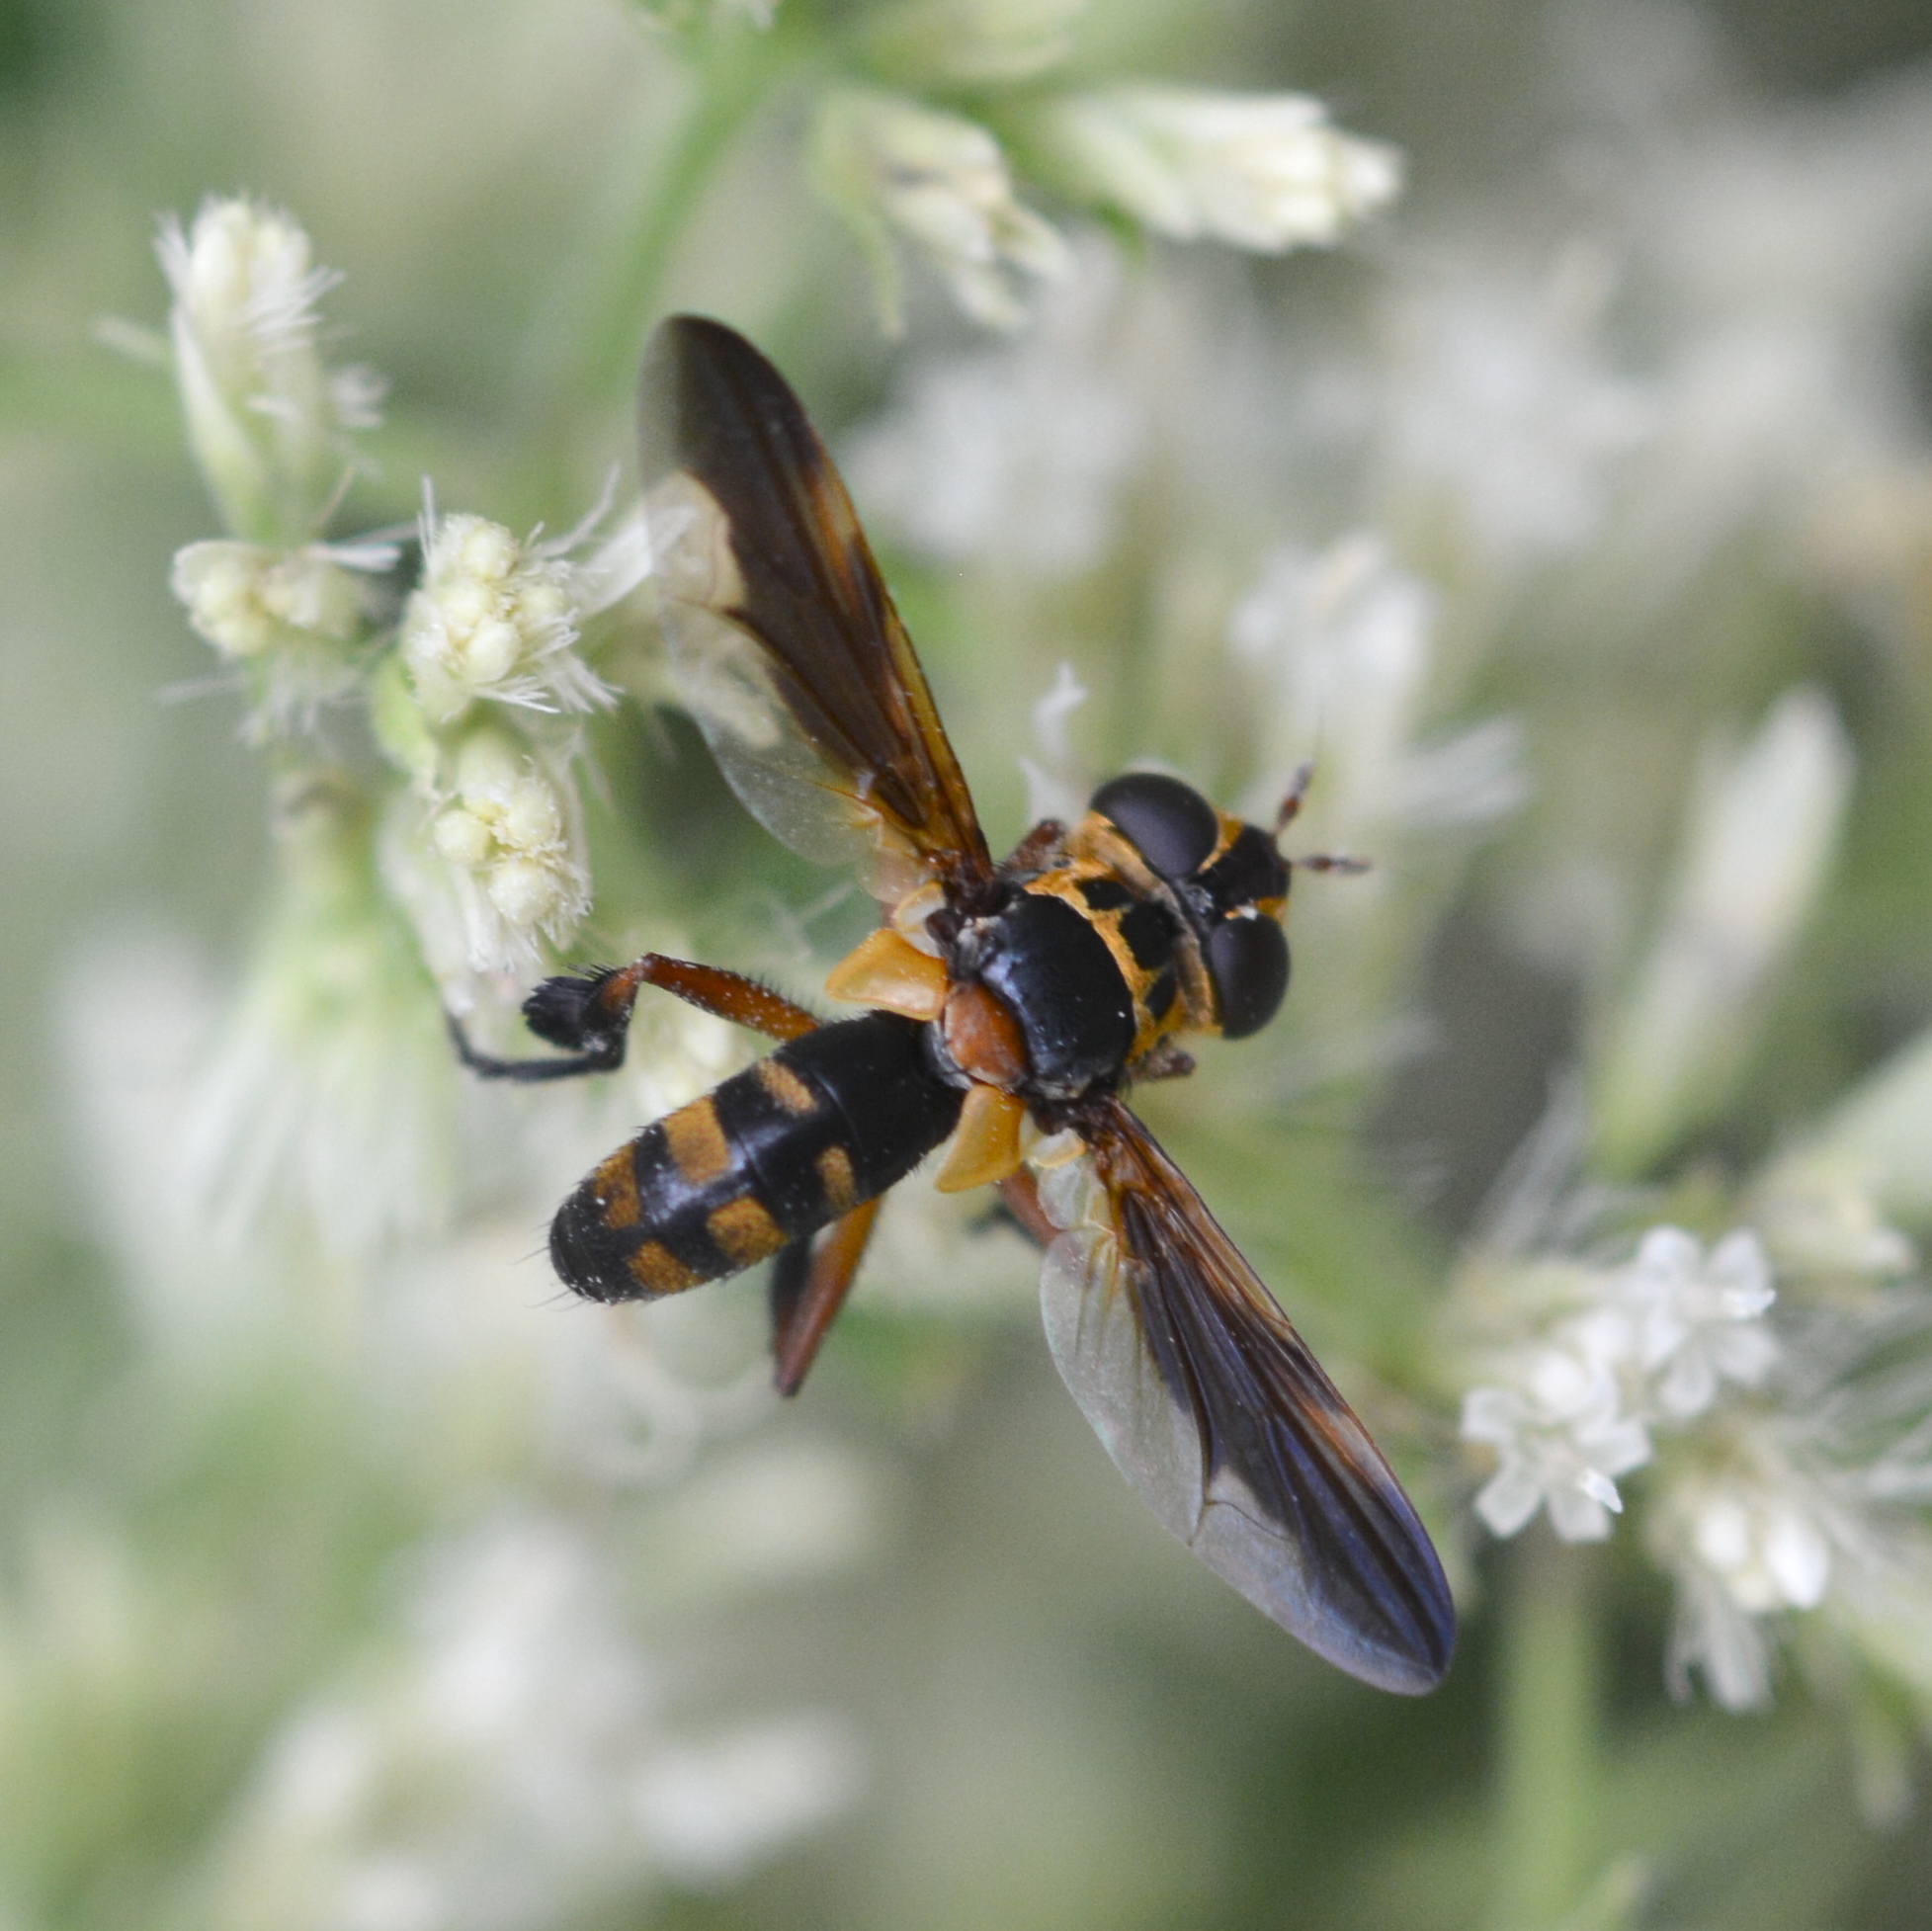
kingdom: Animalia
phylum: Arthropoda
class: Insecta
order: Diptera
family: Tachinidae
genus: Trichopoda
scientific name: Trichopoda plumipes
